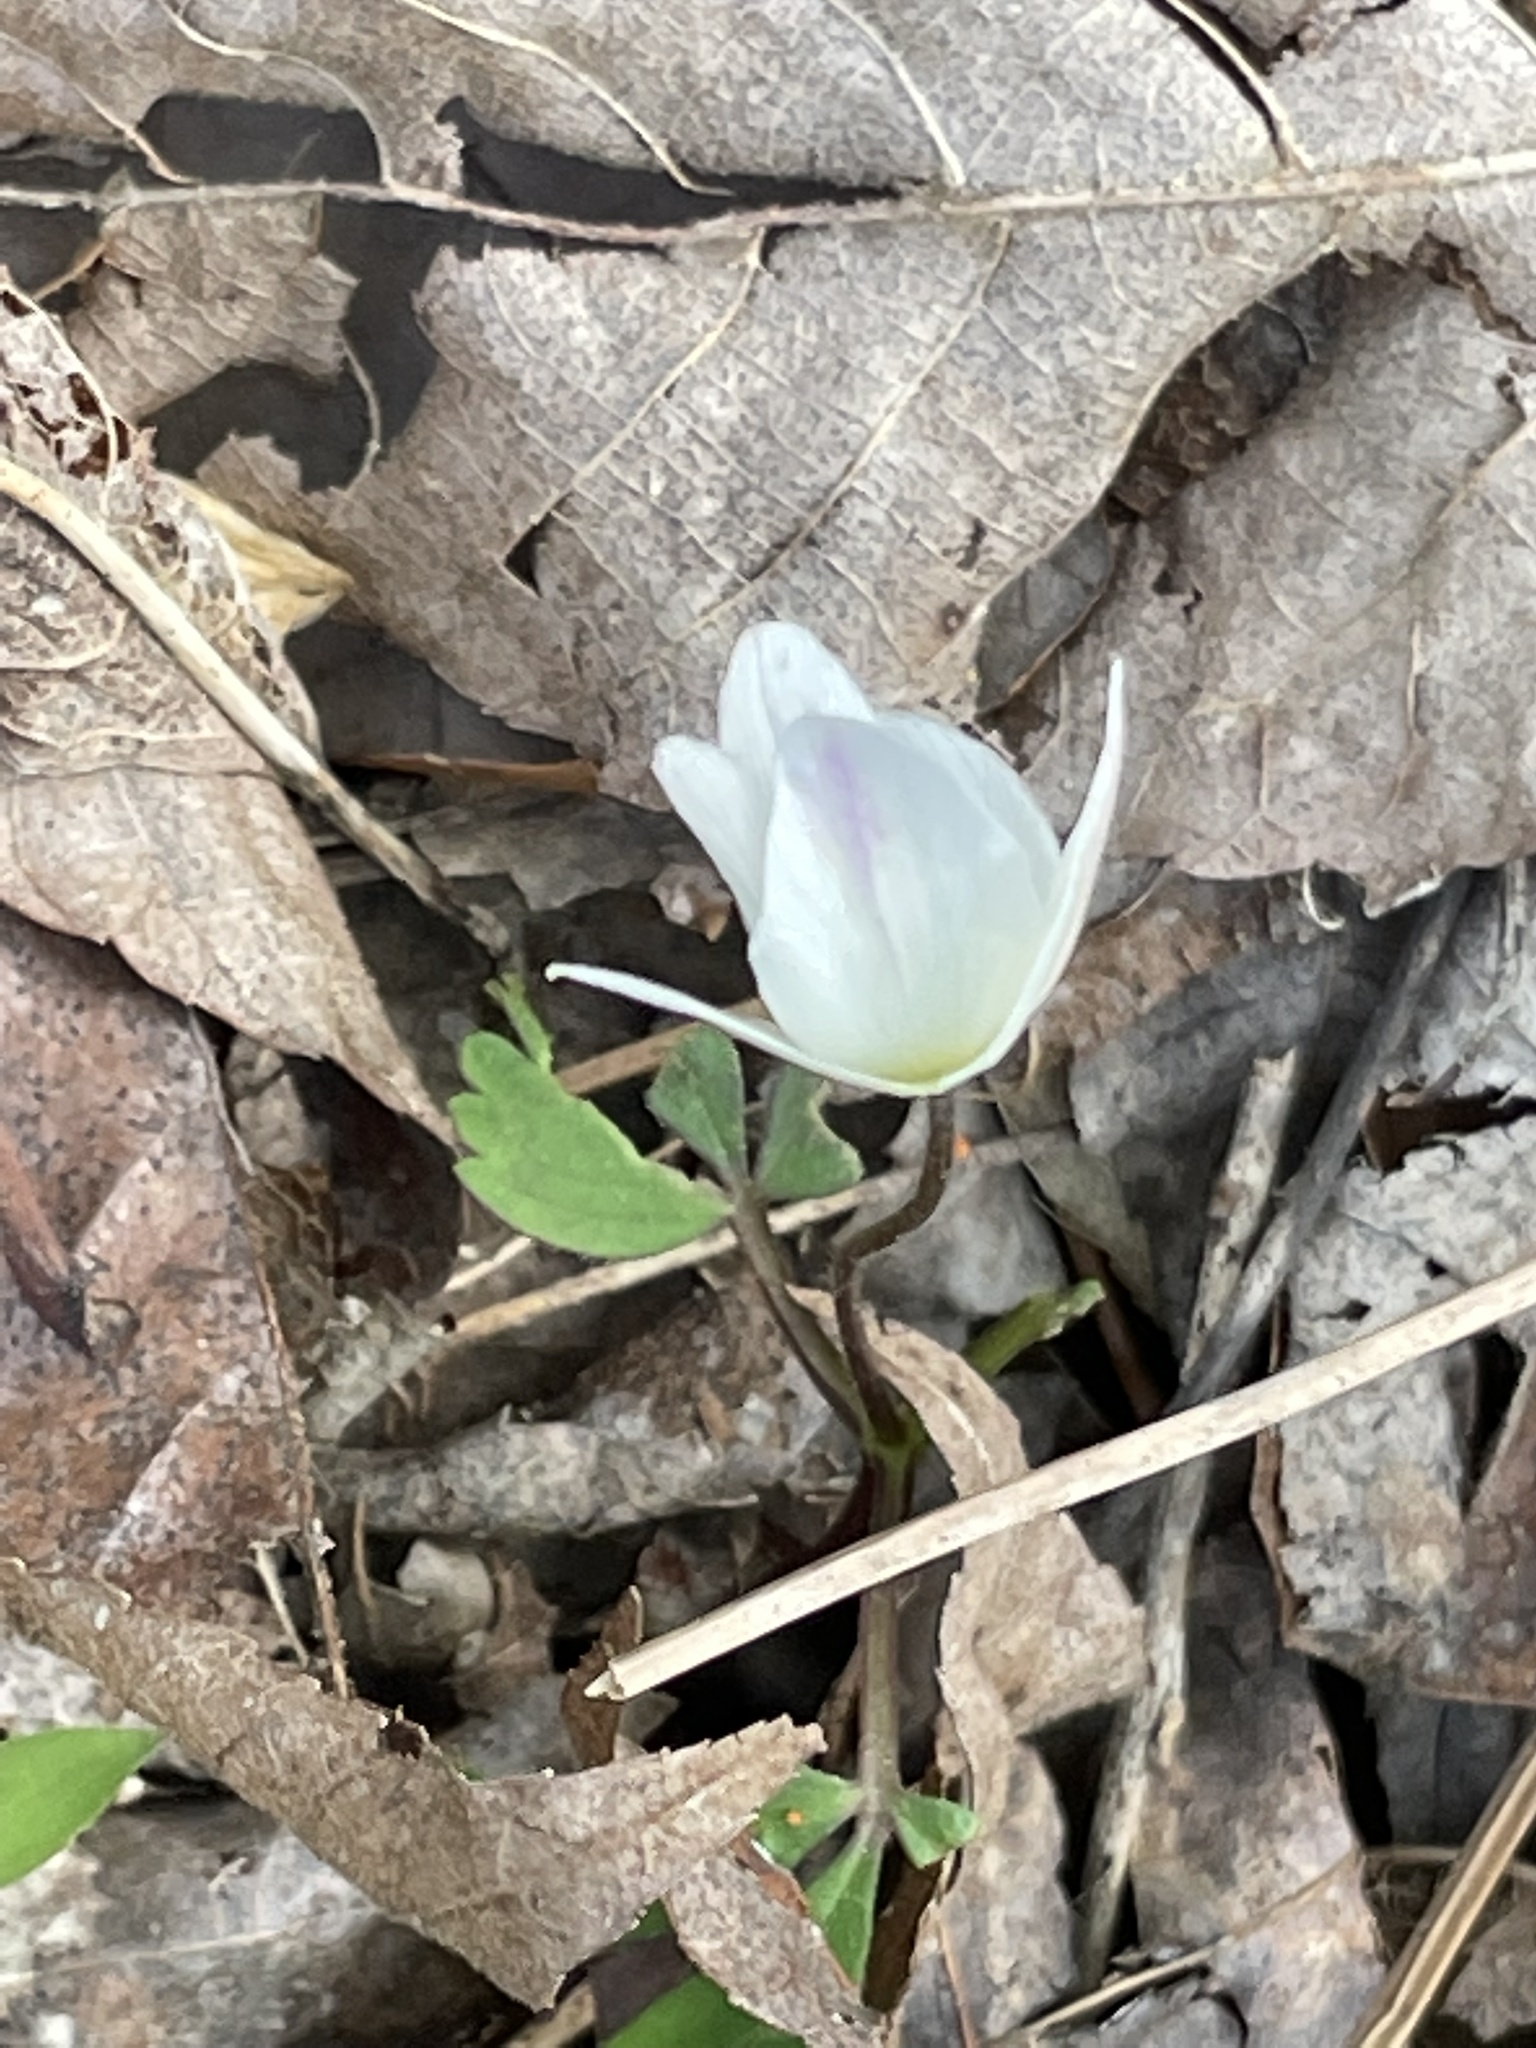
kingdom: Plantae
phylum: Tracheophyta
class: Magnoliopsida
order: Ranunculales
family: Ranunculaceae
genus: Anemone
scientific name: Anemone quinquefolia
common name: Wood anemone
